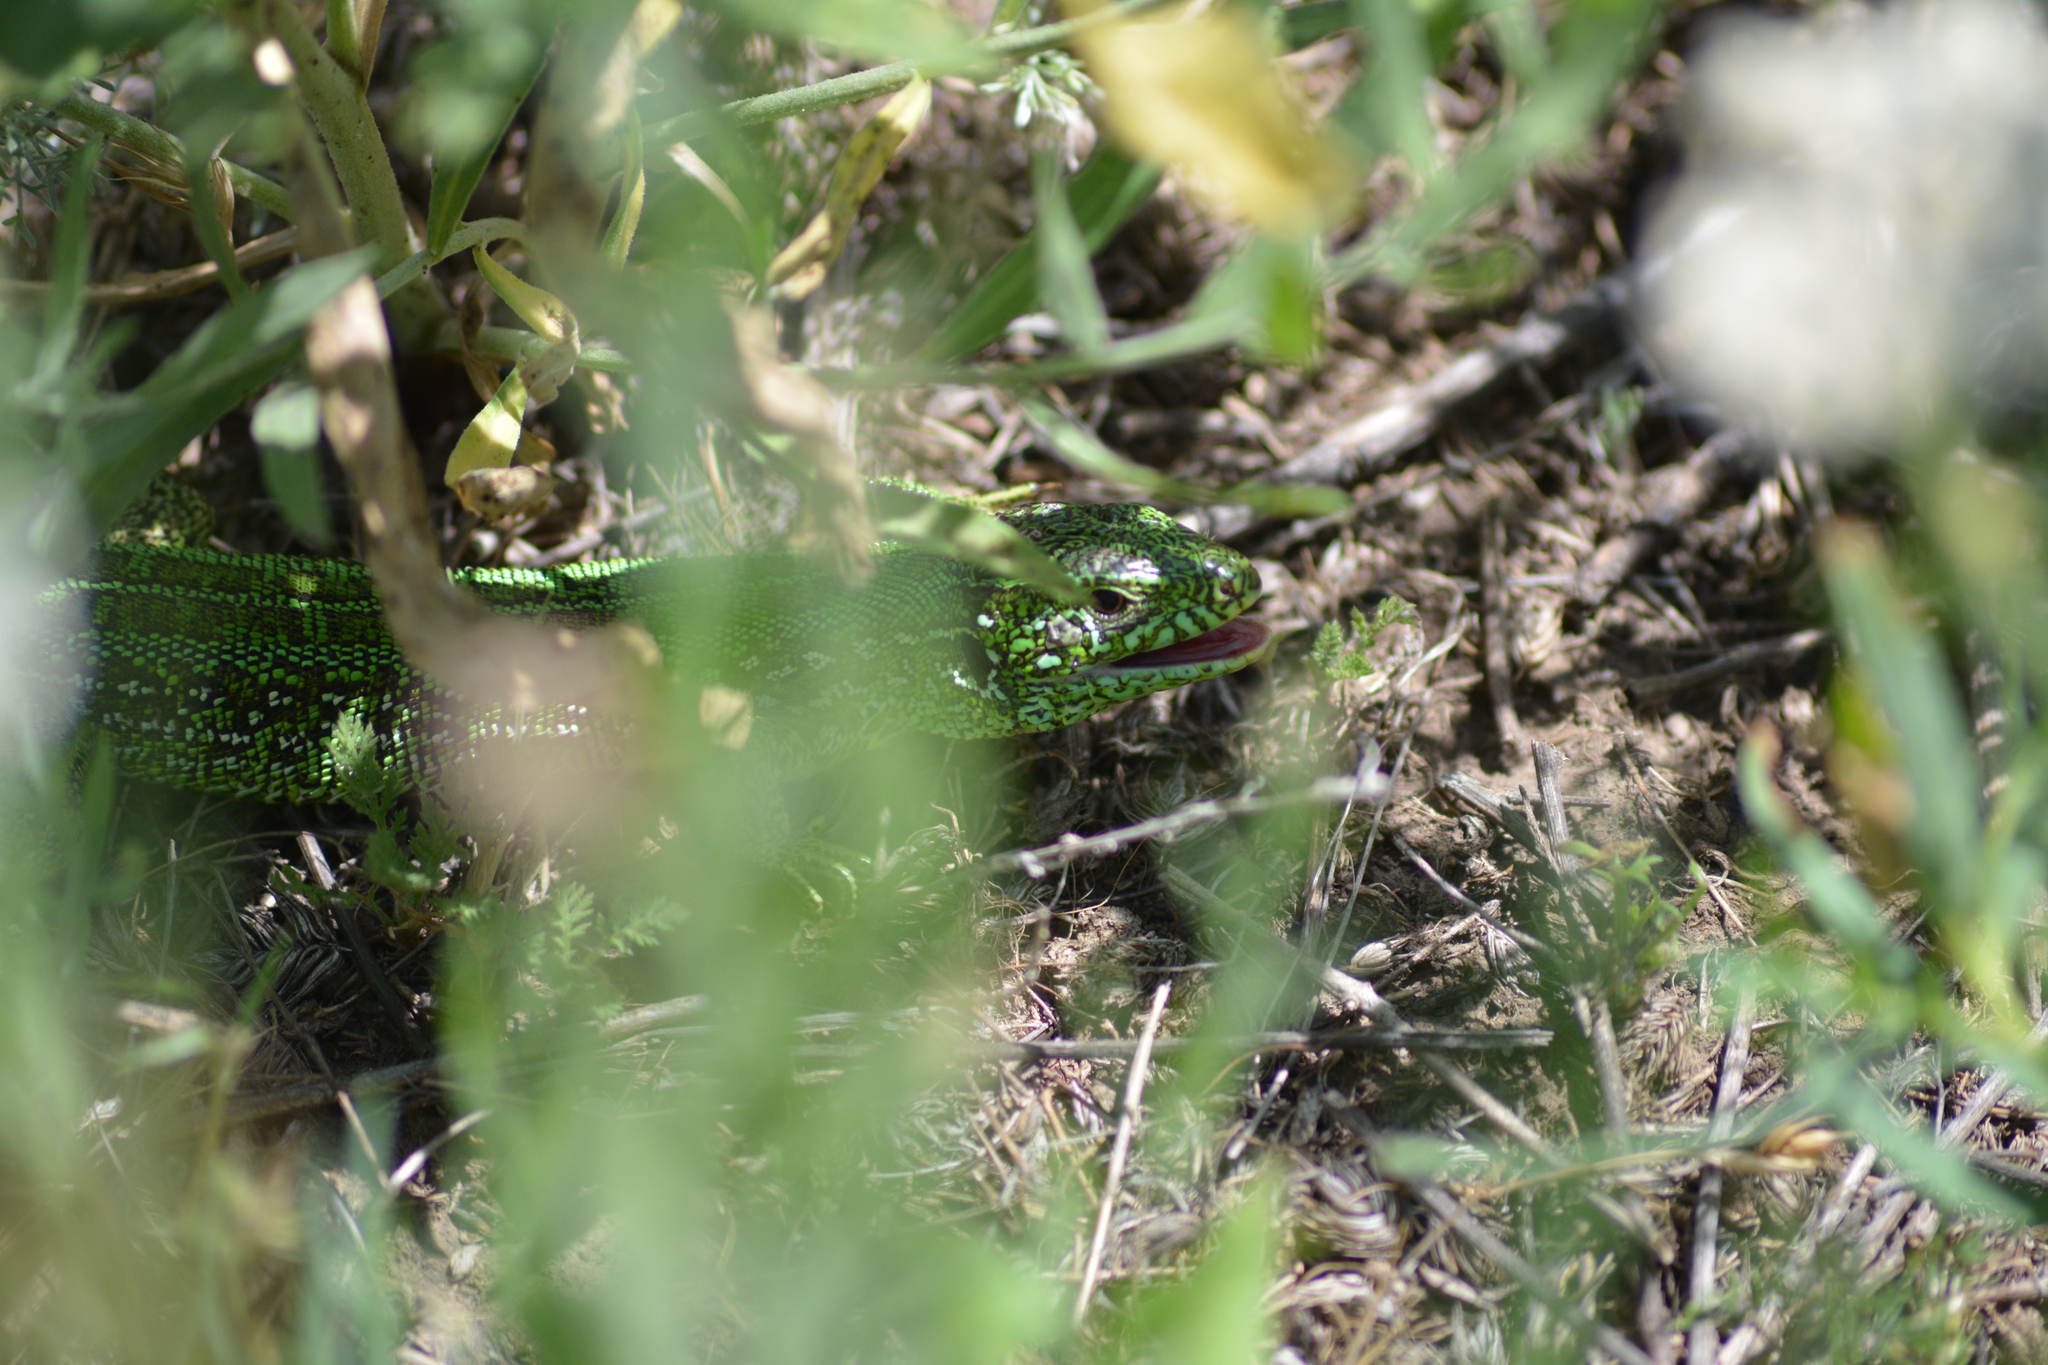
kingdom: Animalia
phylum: Chordata
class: Squamata
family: Lacertidae
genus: Lacerta
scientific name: Lacerta agilis
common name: Sand lizard
